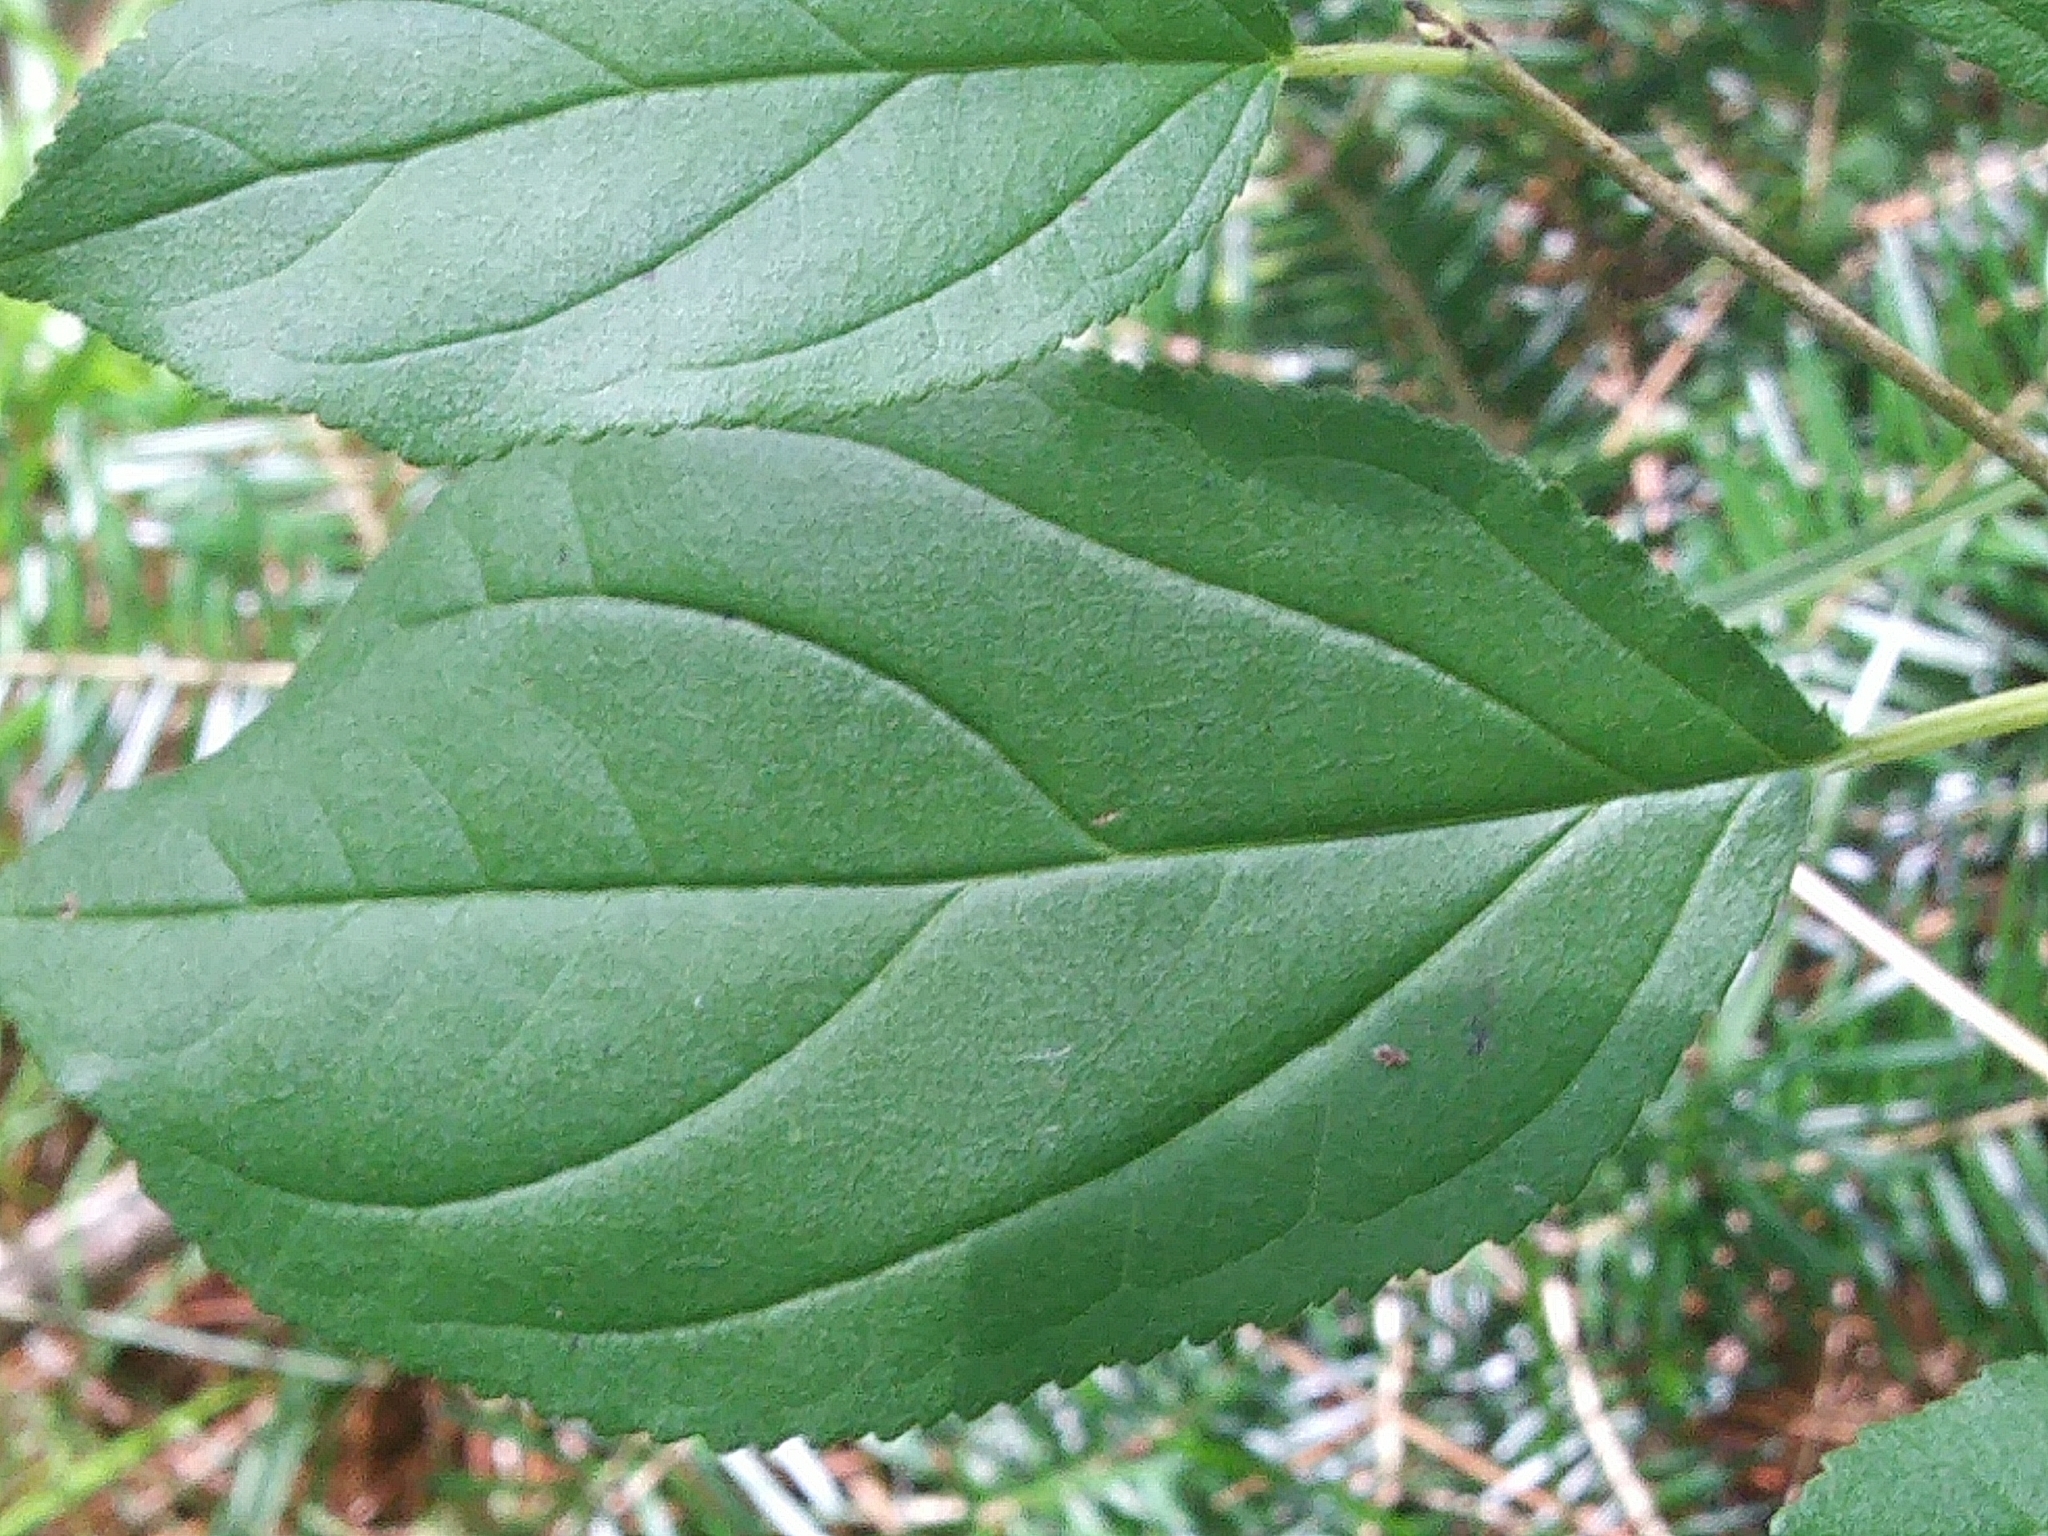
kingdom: Plantae
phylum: Tracheophyta
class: Magnoliopsida
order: Rosales
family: Rhamnaceae
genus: Rhamnus
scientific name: Rhamnus cathartica
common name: Common buckthorn
